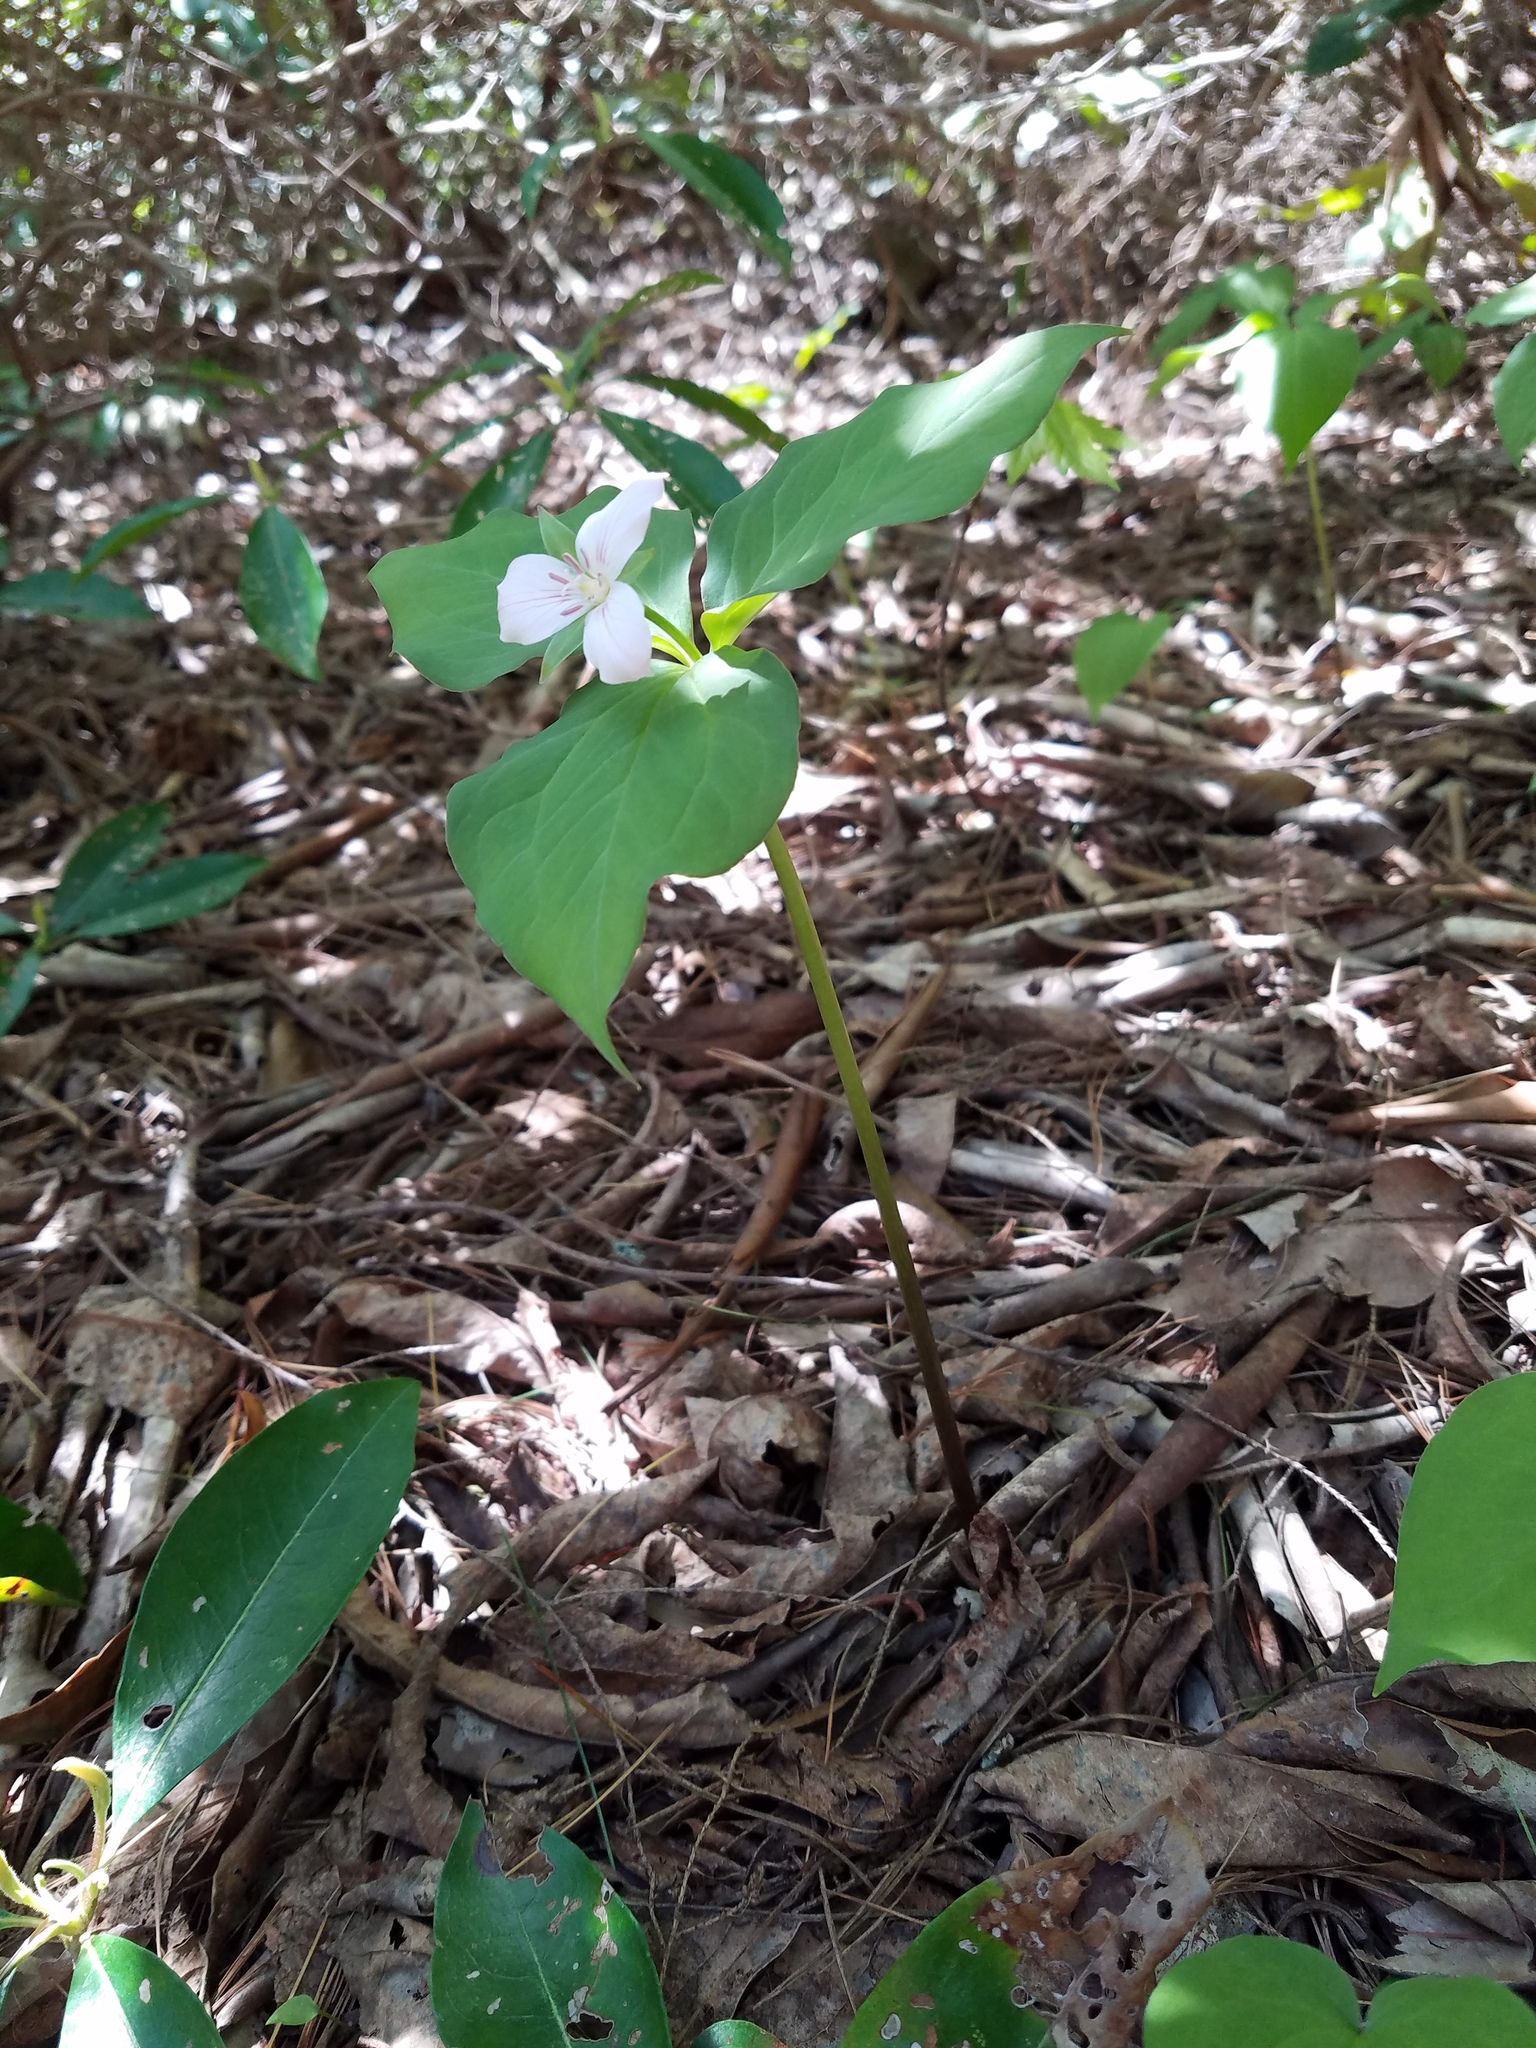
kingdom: Plantae
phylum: Tracheophyta
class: Liliopsida
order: Liliales
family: Melanthiaceae
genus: Trillium
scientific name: Trillium undulatum
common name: Paint trillium
